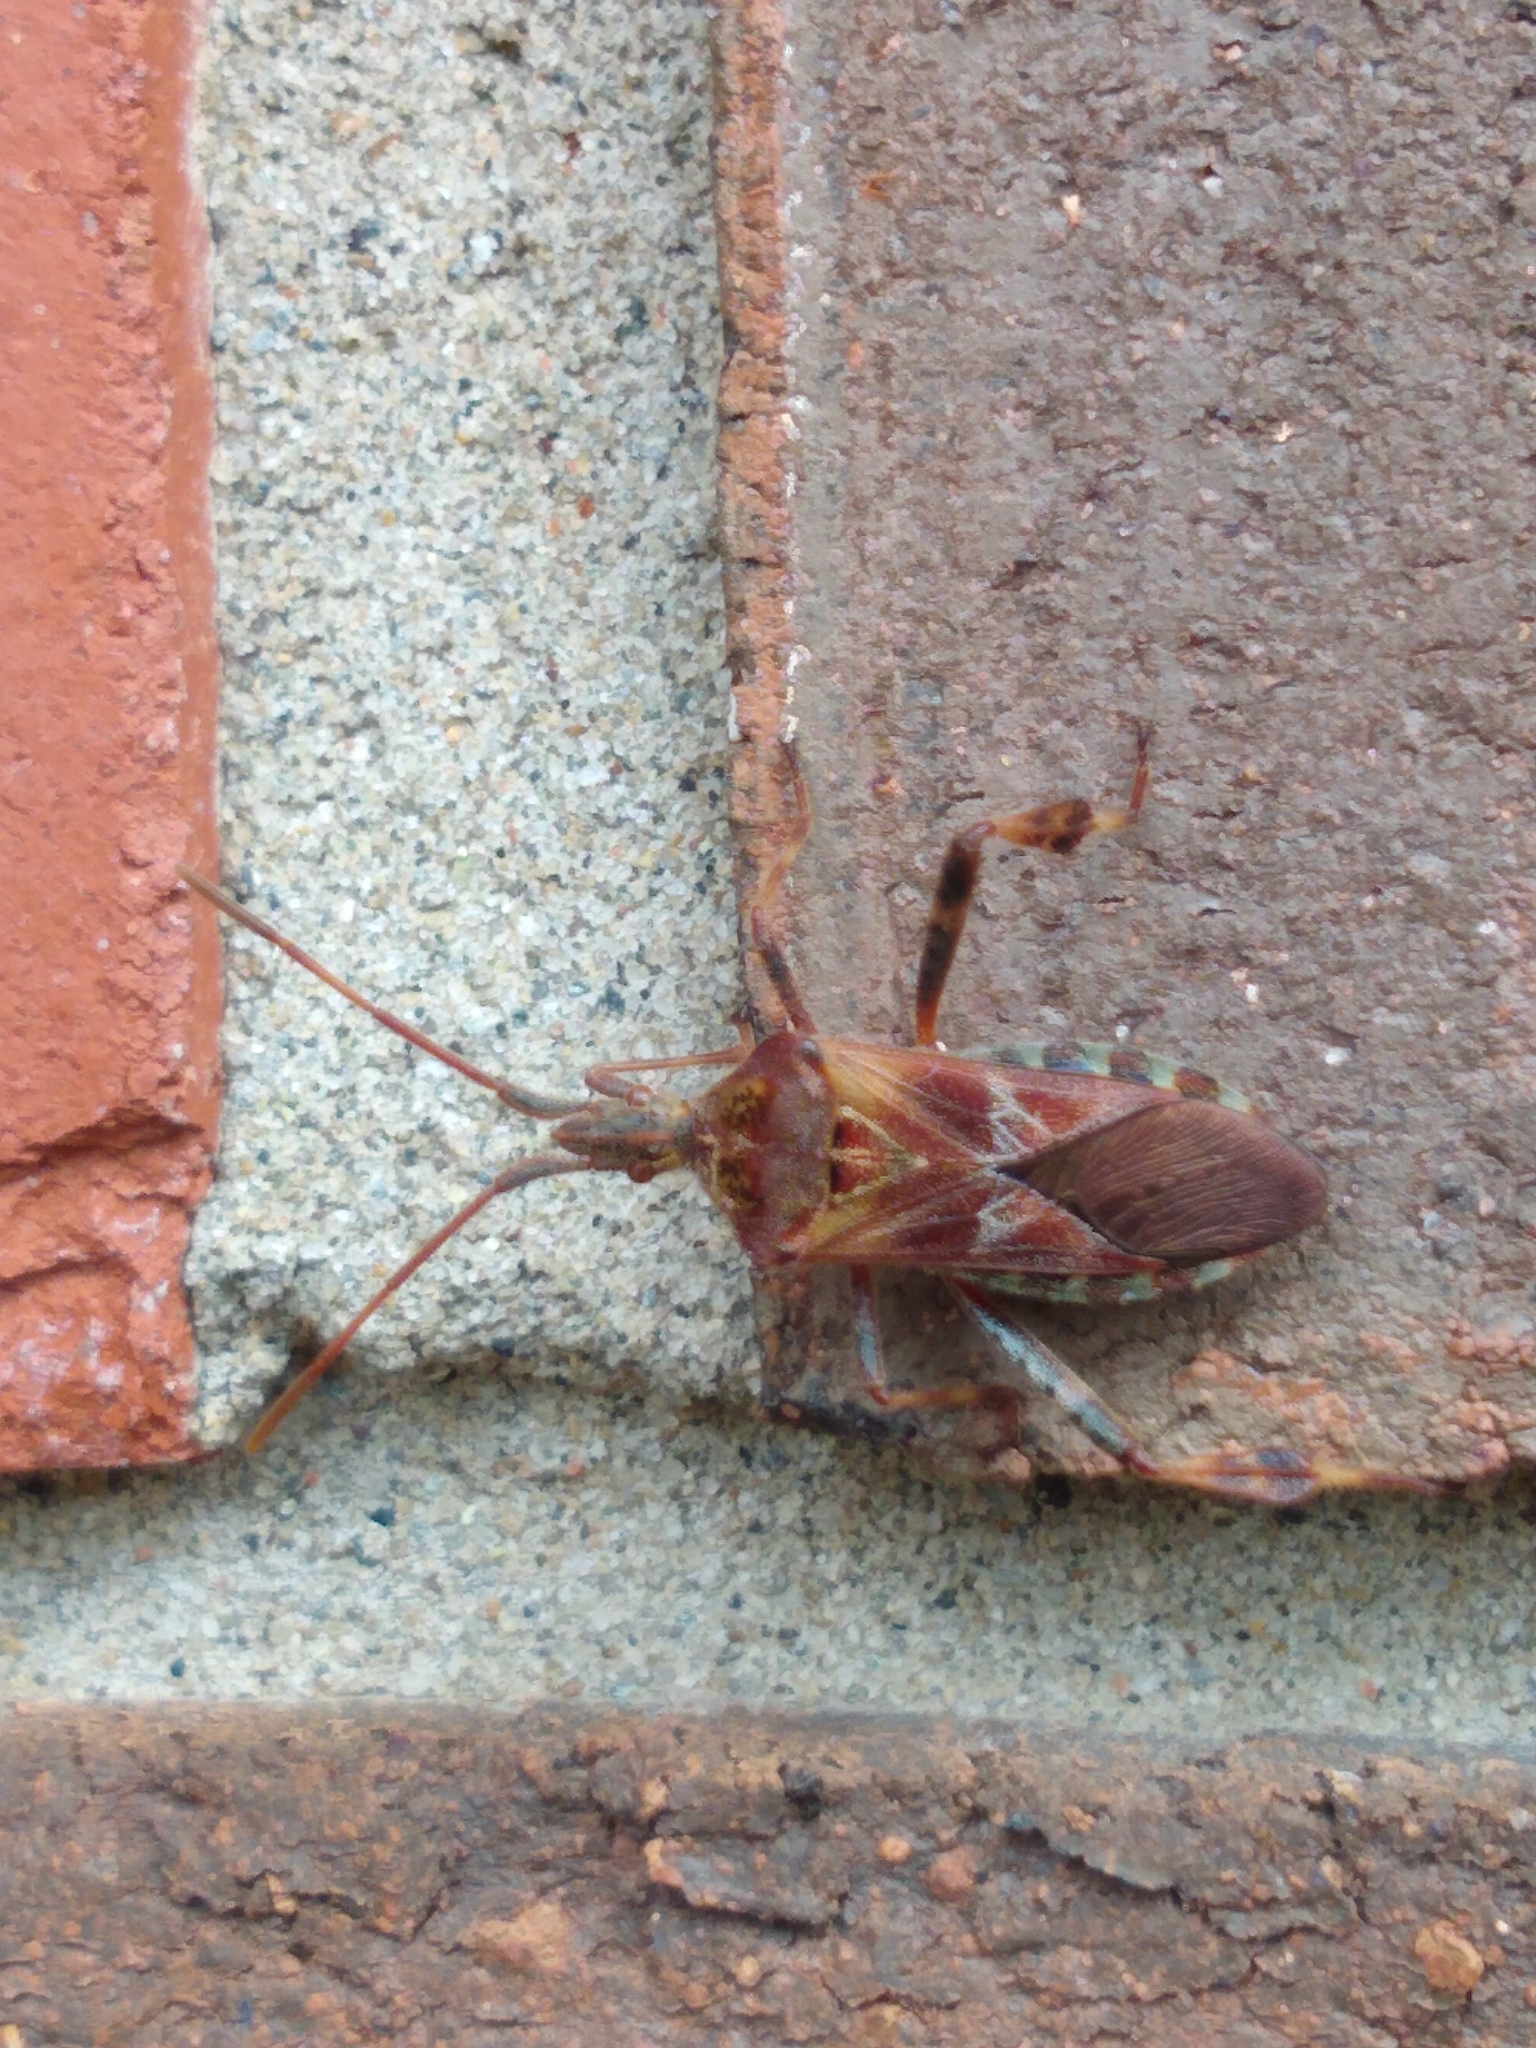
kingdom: Animalia
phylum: Arthropoda
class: Insecta
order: Hemiptera
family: Coreidae
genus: Leptoglossus
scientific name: Leptoglossus occidentalis
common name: Western conifer-seed bug
